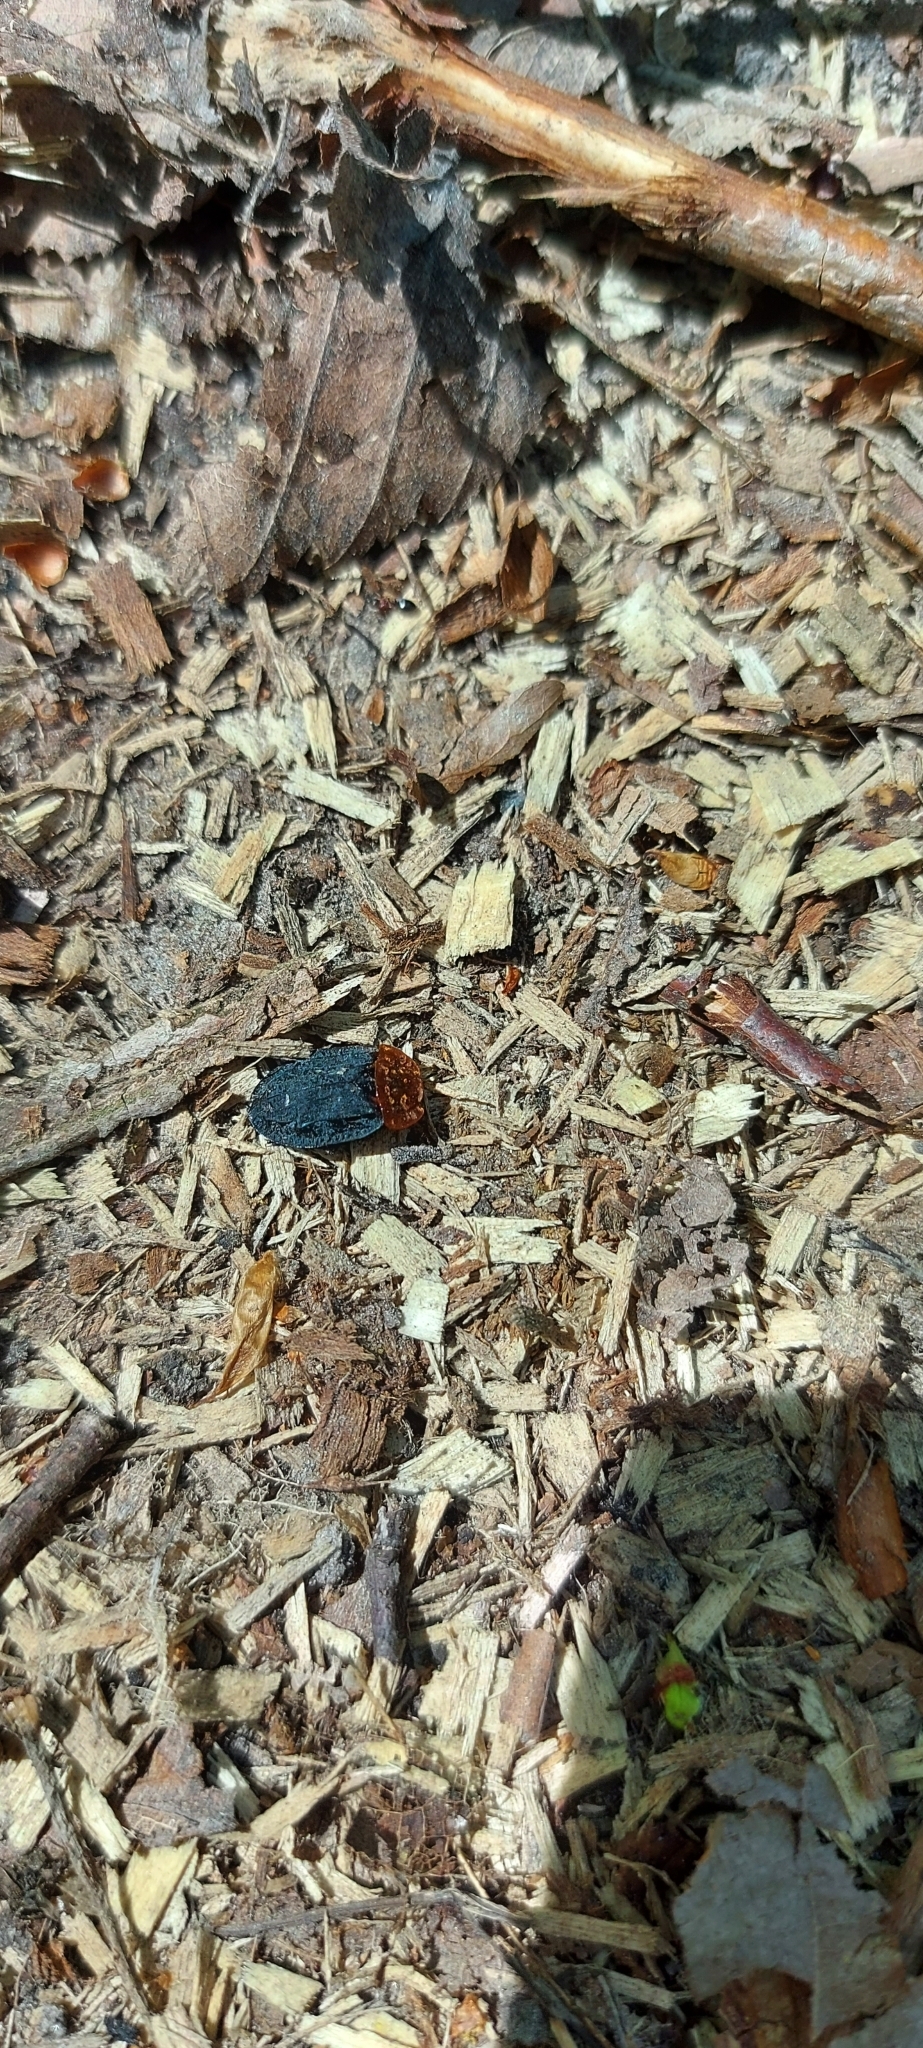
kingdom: Animalia
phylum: Arthropoda
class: Insecta
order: Coleoptera
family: Staphylinidae
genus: Oiceoptoma
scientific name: Oiceoptoma thoracicum
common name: Red-breasted carrion beetle
